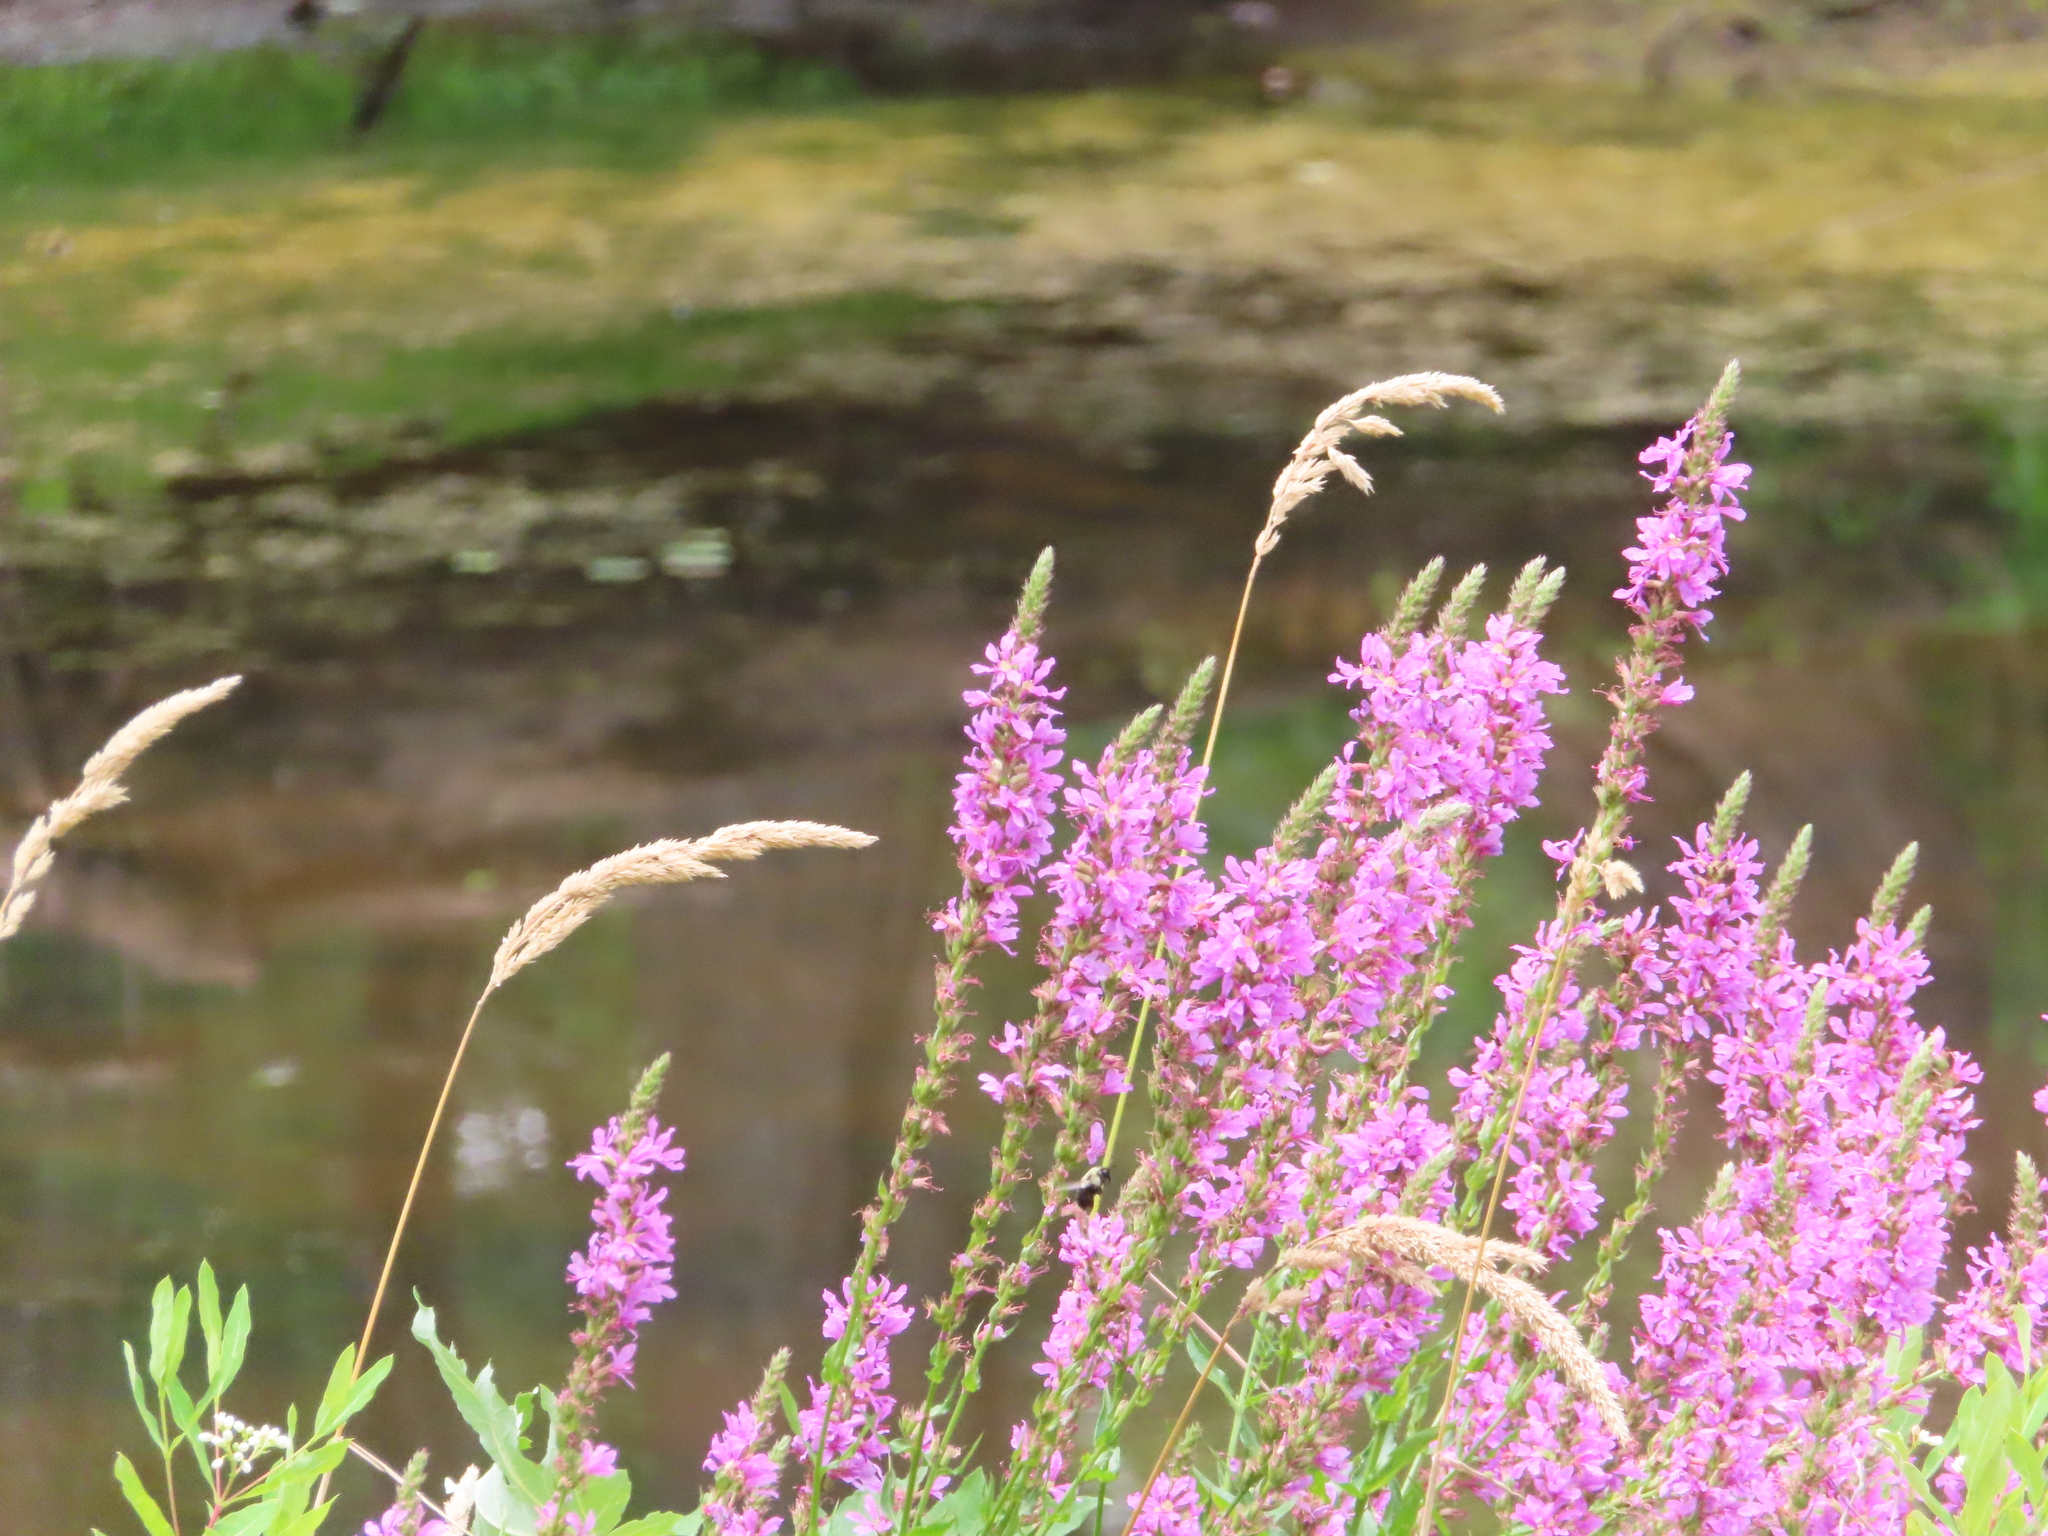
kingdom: Plantae
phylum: Tracheophyta
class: Magnoliopsida
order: Myrtales
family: Lythraceae
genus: Lythrum
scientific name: Lythrum salicaria
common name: Purple loosestrife
